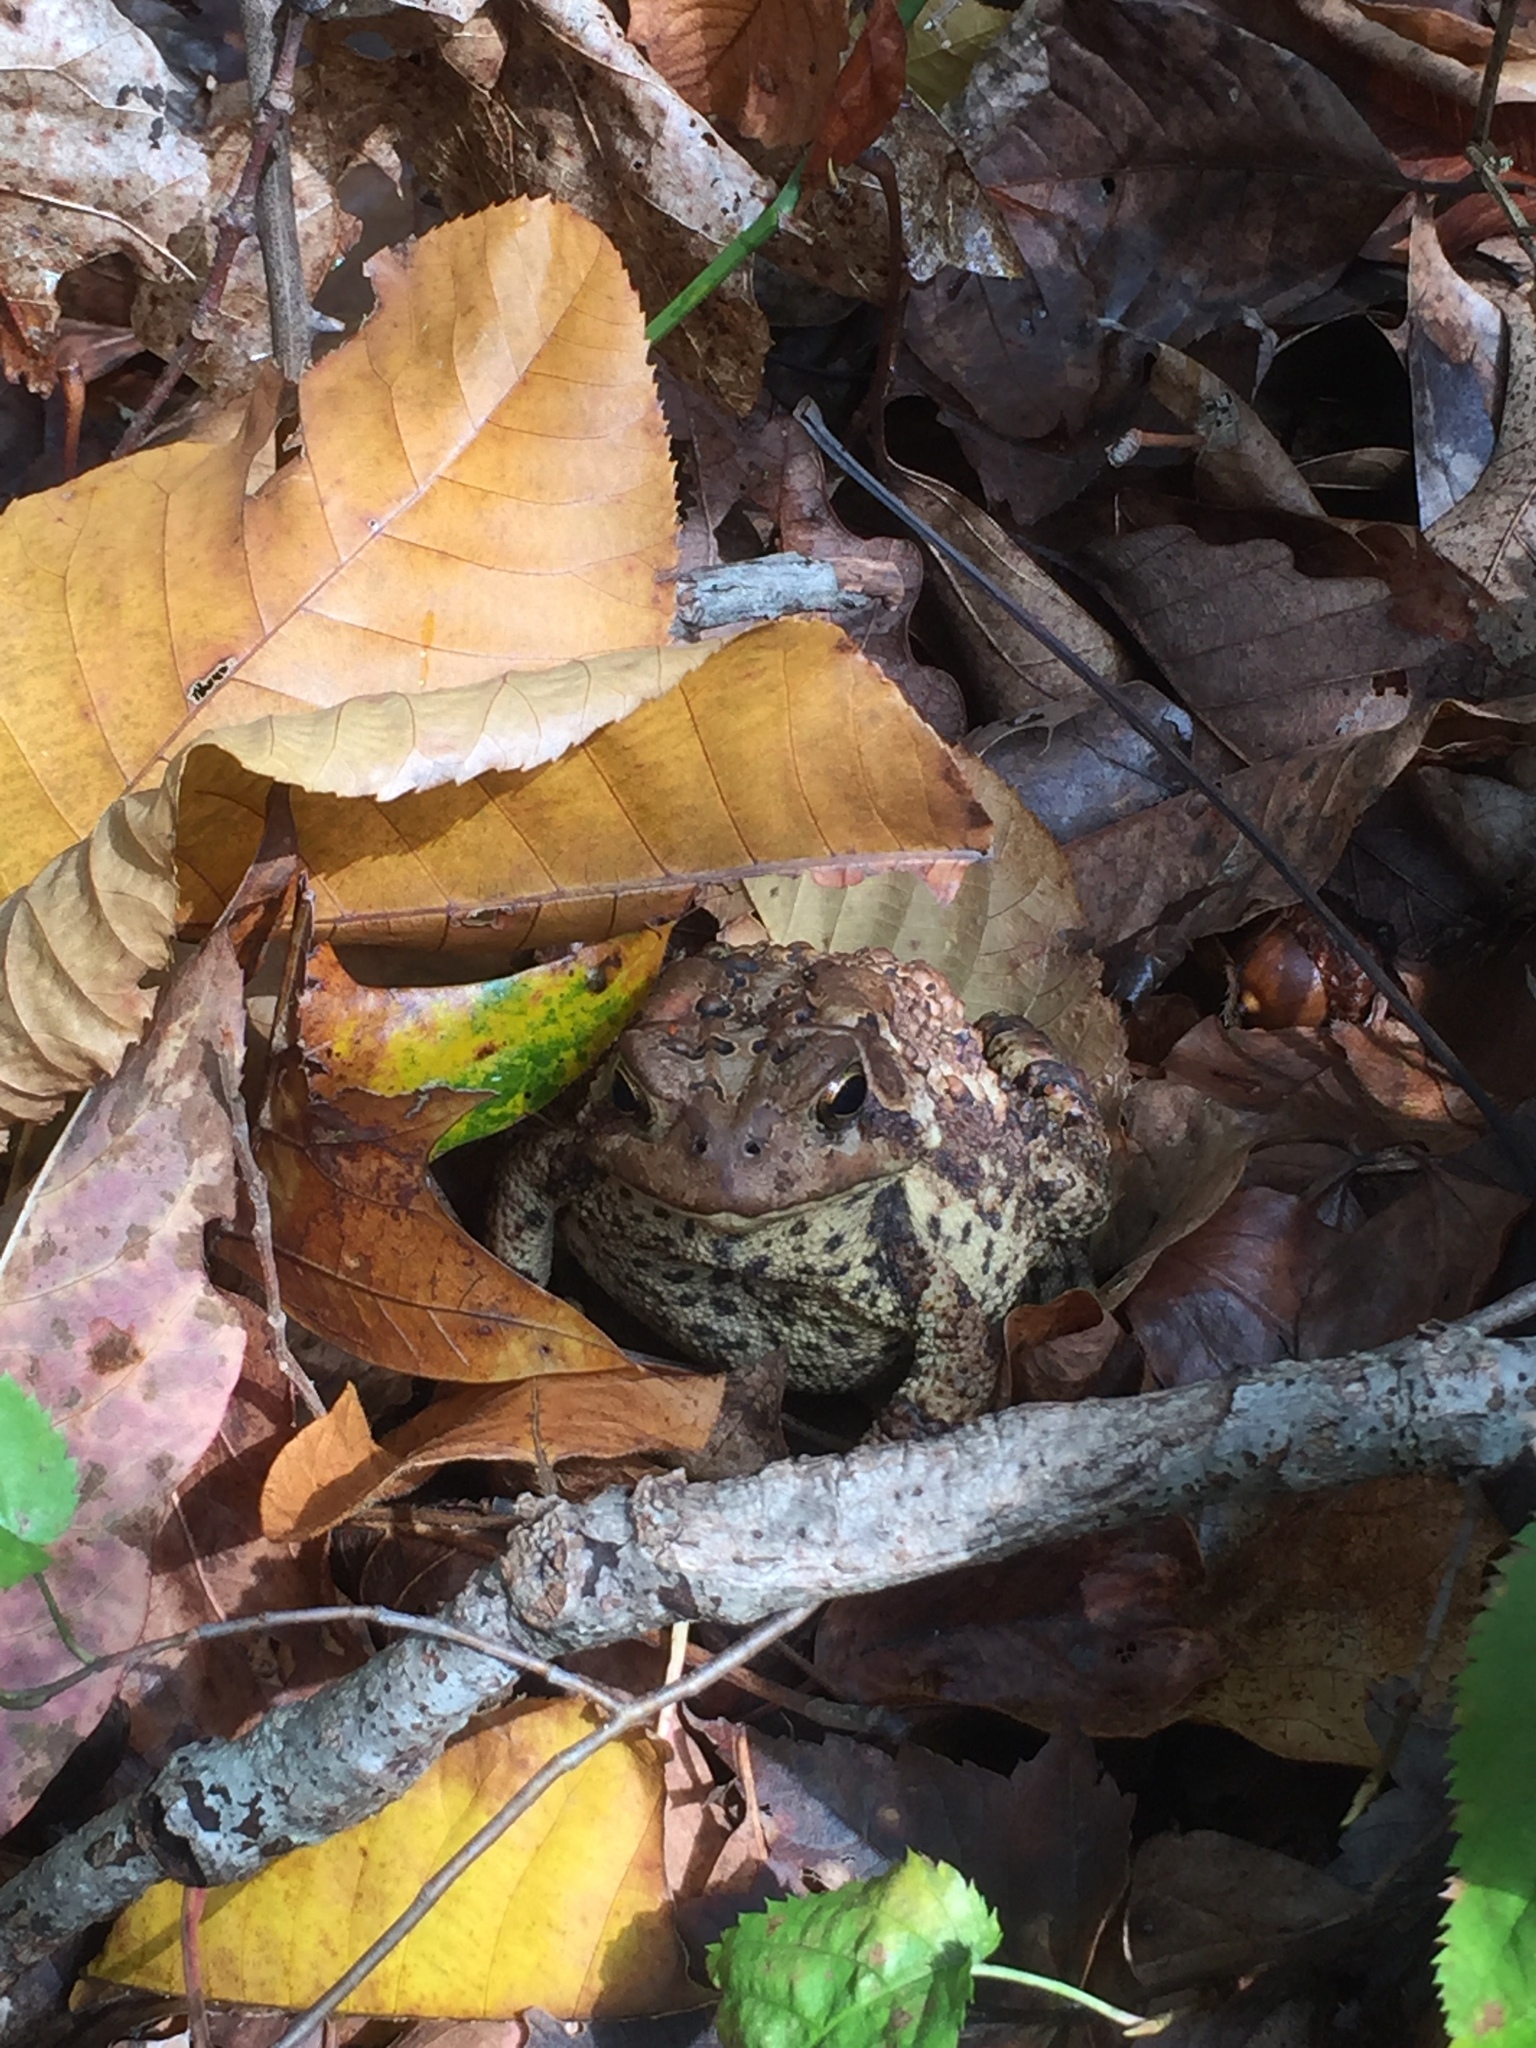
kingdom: Animalia
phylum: Chordata
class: Amphibia
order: Anura
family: Bufonidae
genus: Anaxyrus
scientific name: Anaxyrus americanus
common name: American toad
